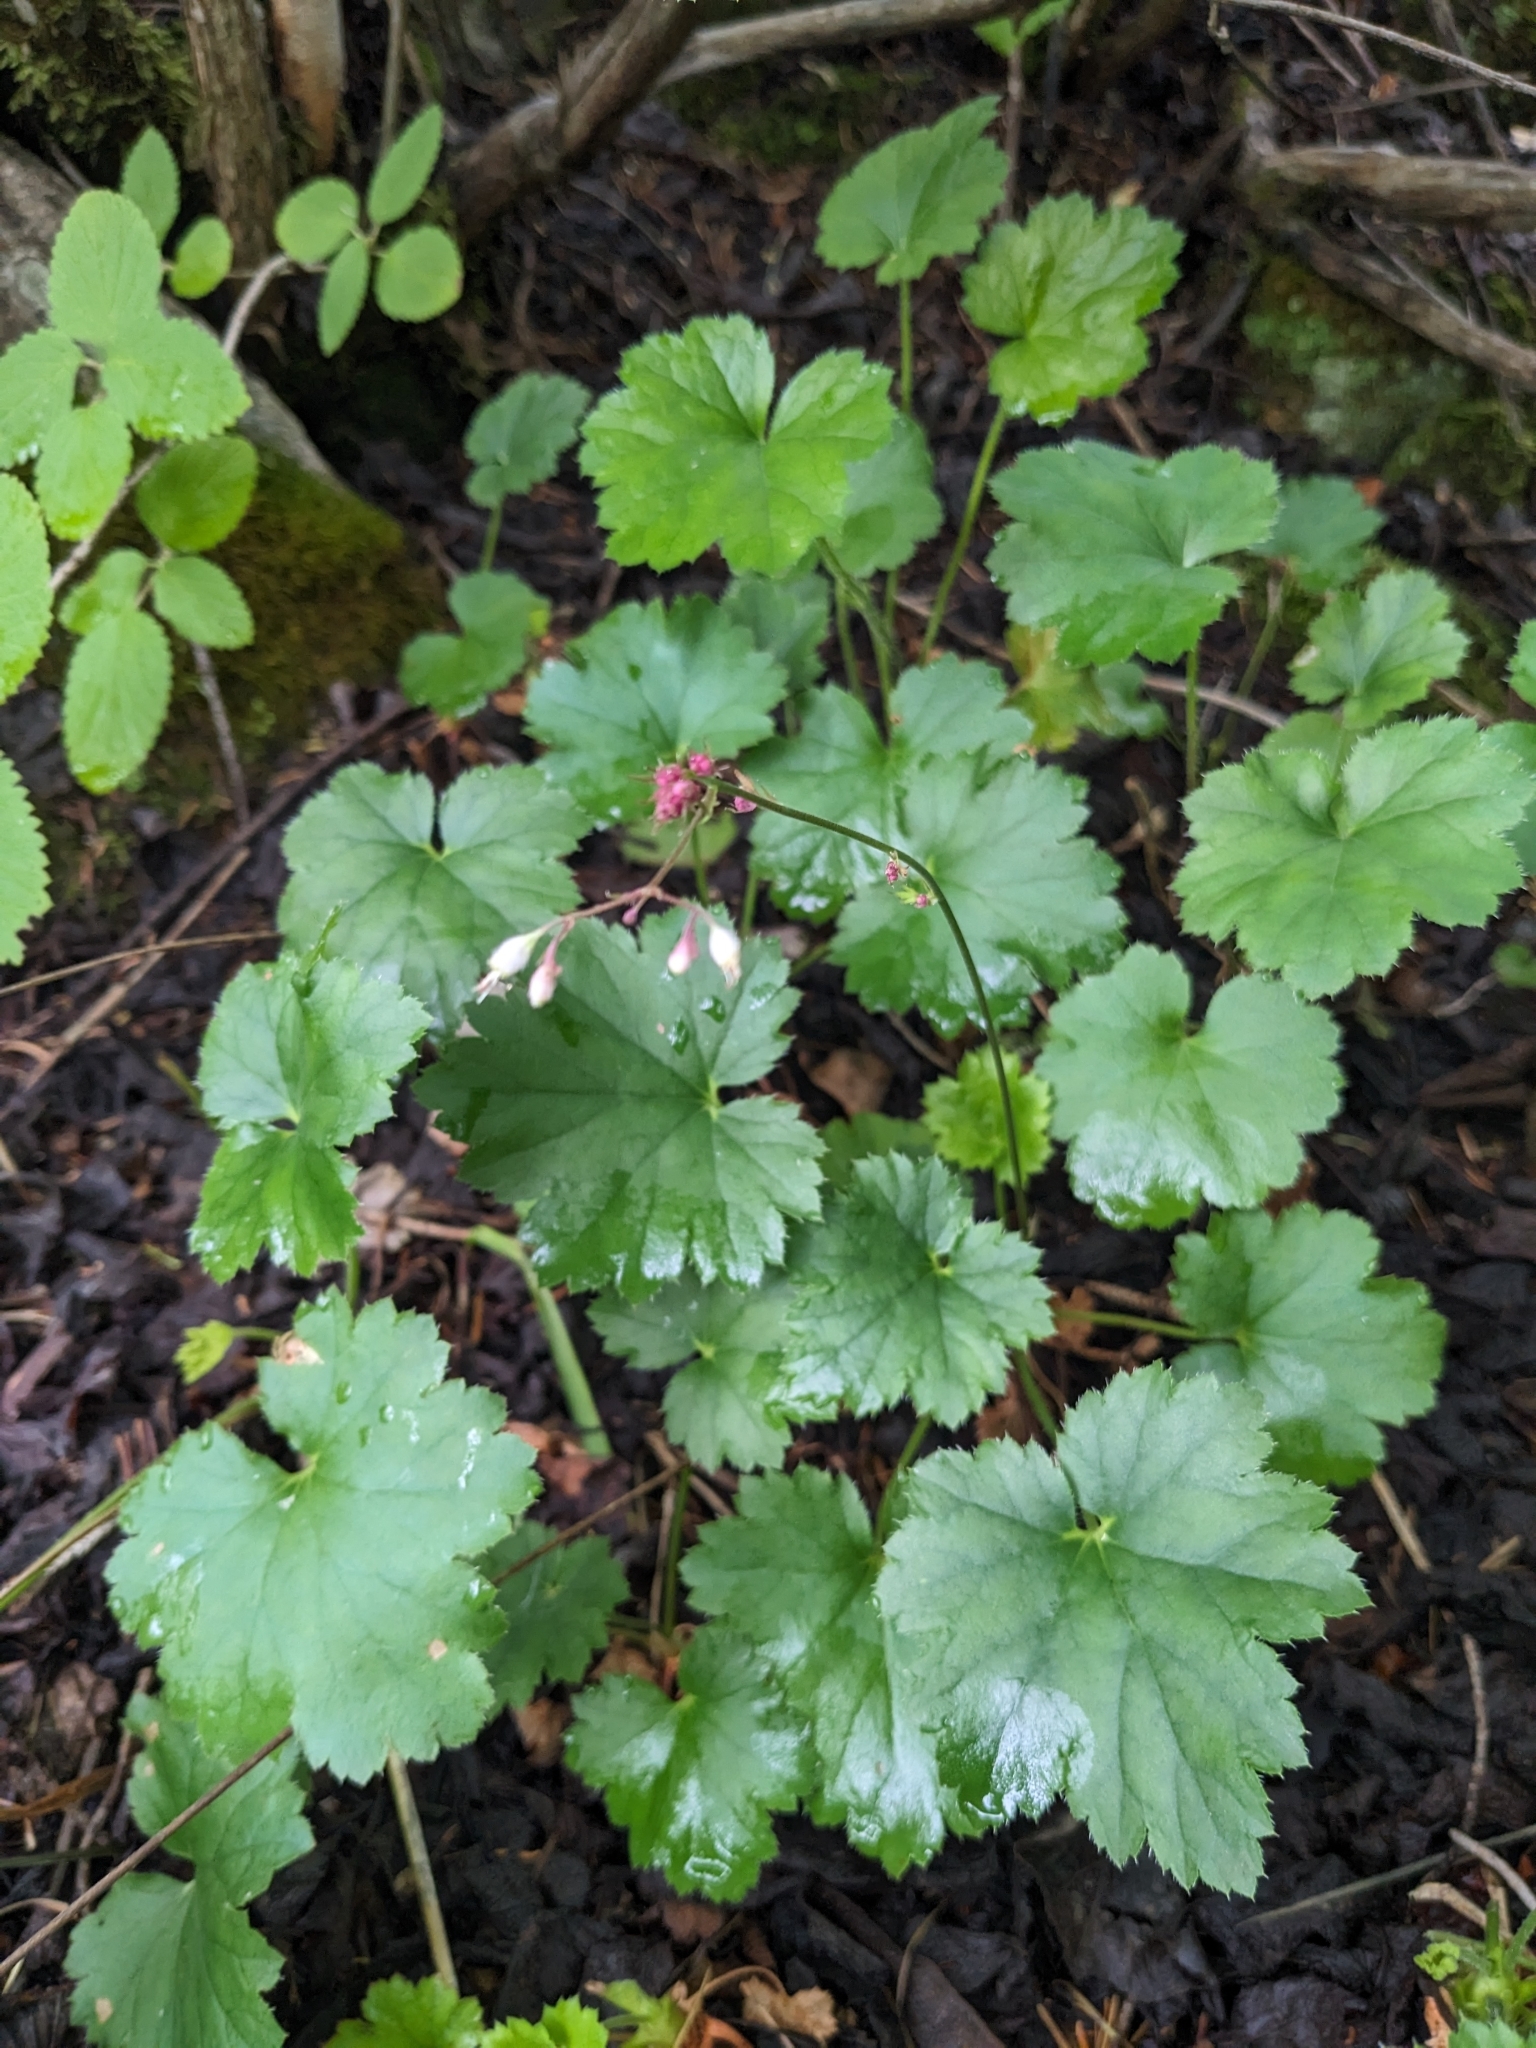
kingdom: Plantae
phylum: Tracheophyta
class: Magnoliopsida
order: Saxifragales
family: Saxifragaceae
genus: Heuchera
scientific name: Heuchera rubescens
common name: Jack-o'the-rocks
